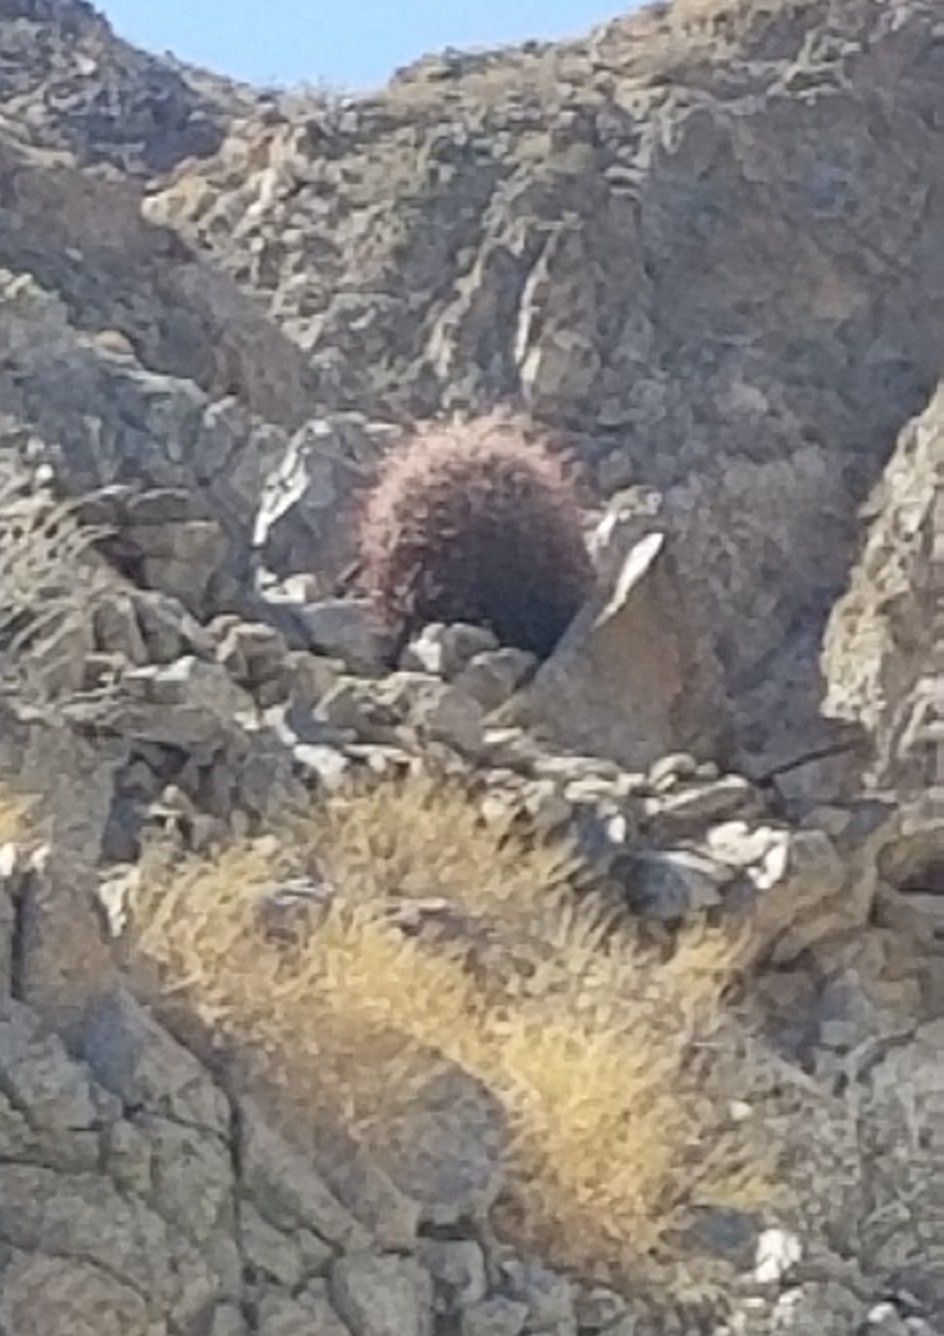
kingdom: Plantae
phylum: Tracheophyta
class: Magnoliopsida
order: Caryophyllales
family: Cactaceae
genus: Ferocactus
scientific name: Ferocactus cylindraceus
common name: California barrel cactus
